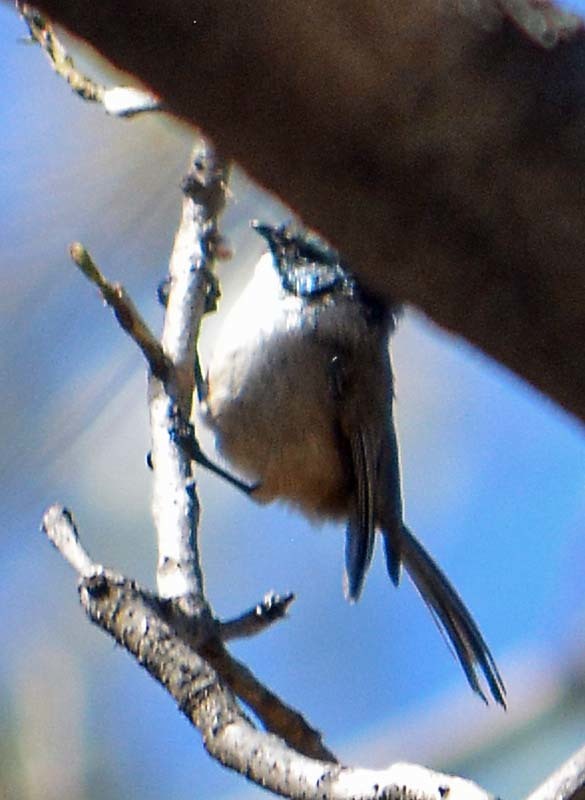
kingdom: Animalia
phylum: Chordata
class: Aves
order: Passeriformes
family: Aegithalidae
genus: Psaltriparus
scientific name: Psaltriparus minimus
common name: American bushtit
